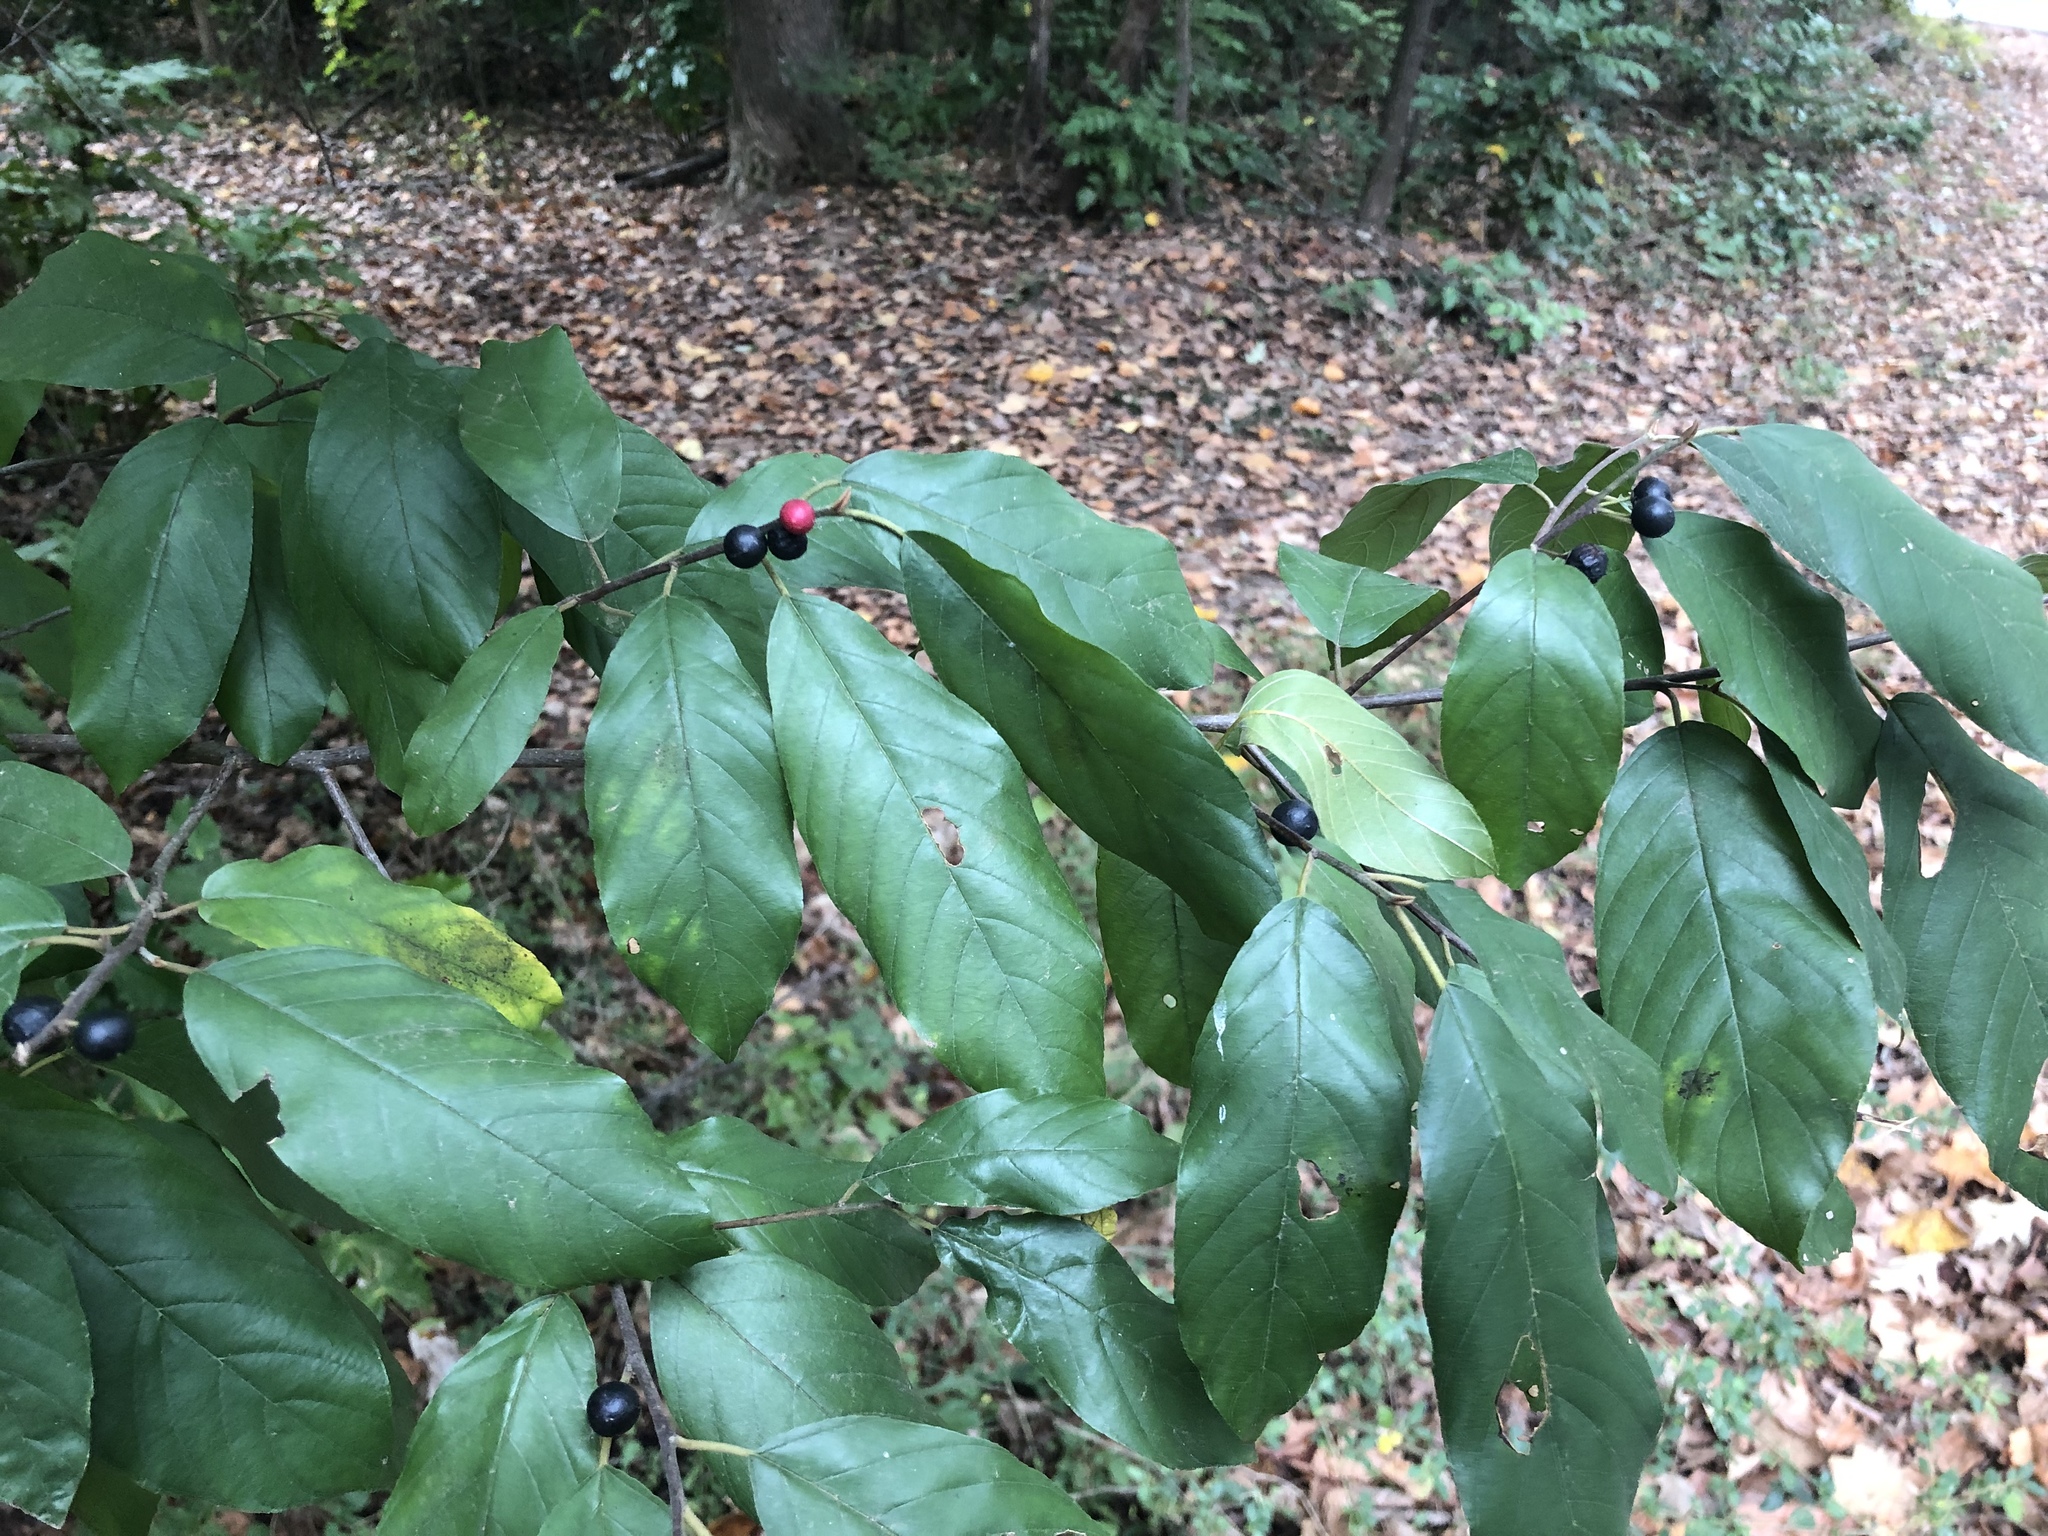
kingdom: Plantae
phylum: Tracheophyta
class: Magnoliopsida
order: Rosales
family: Rhamnaceae
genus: Frangula
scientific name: Frangula caroliniana
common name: Carolina buckthorn
